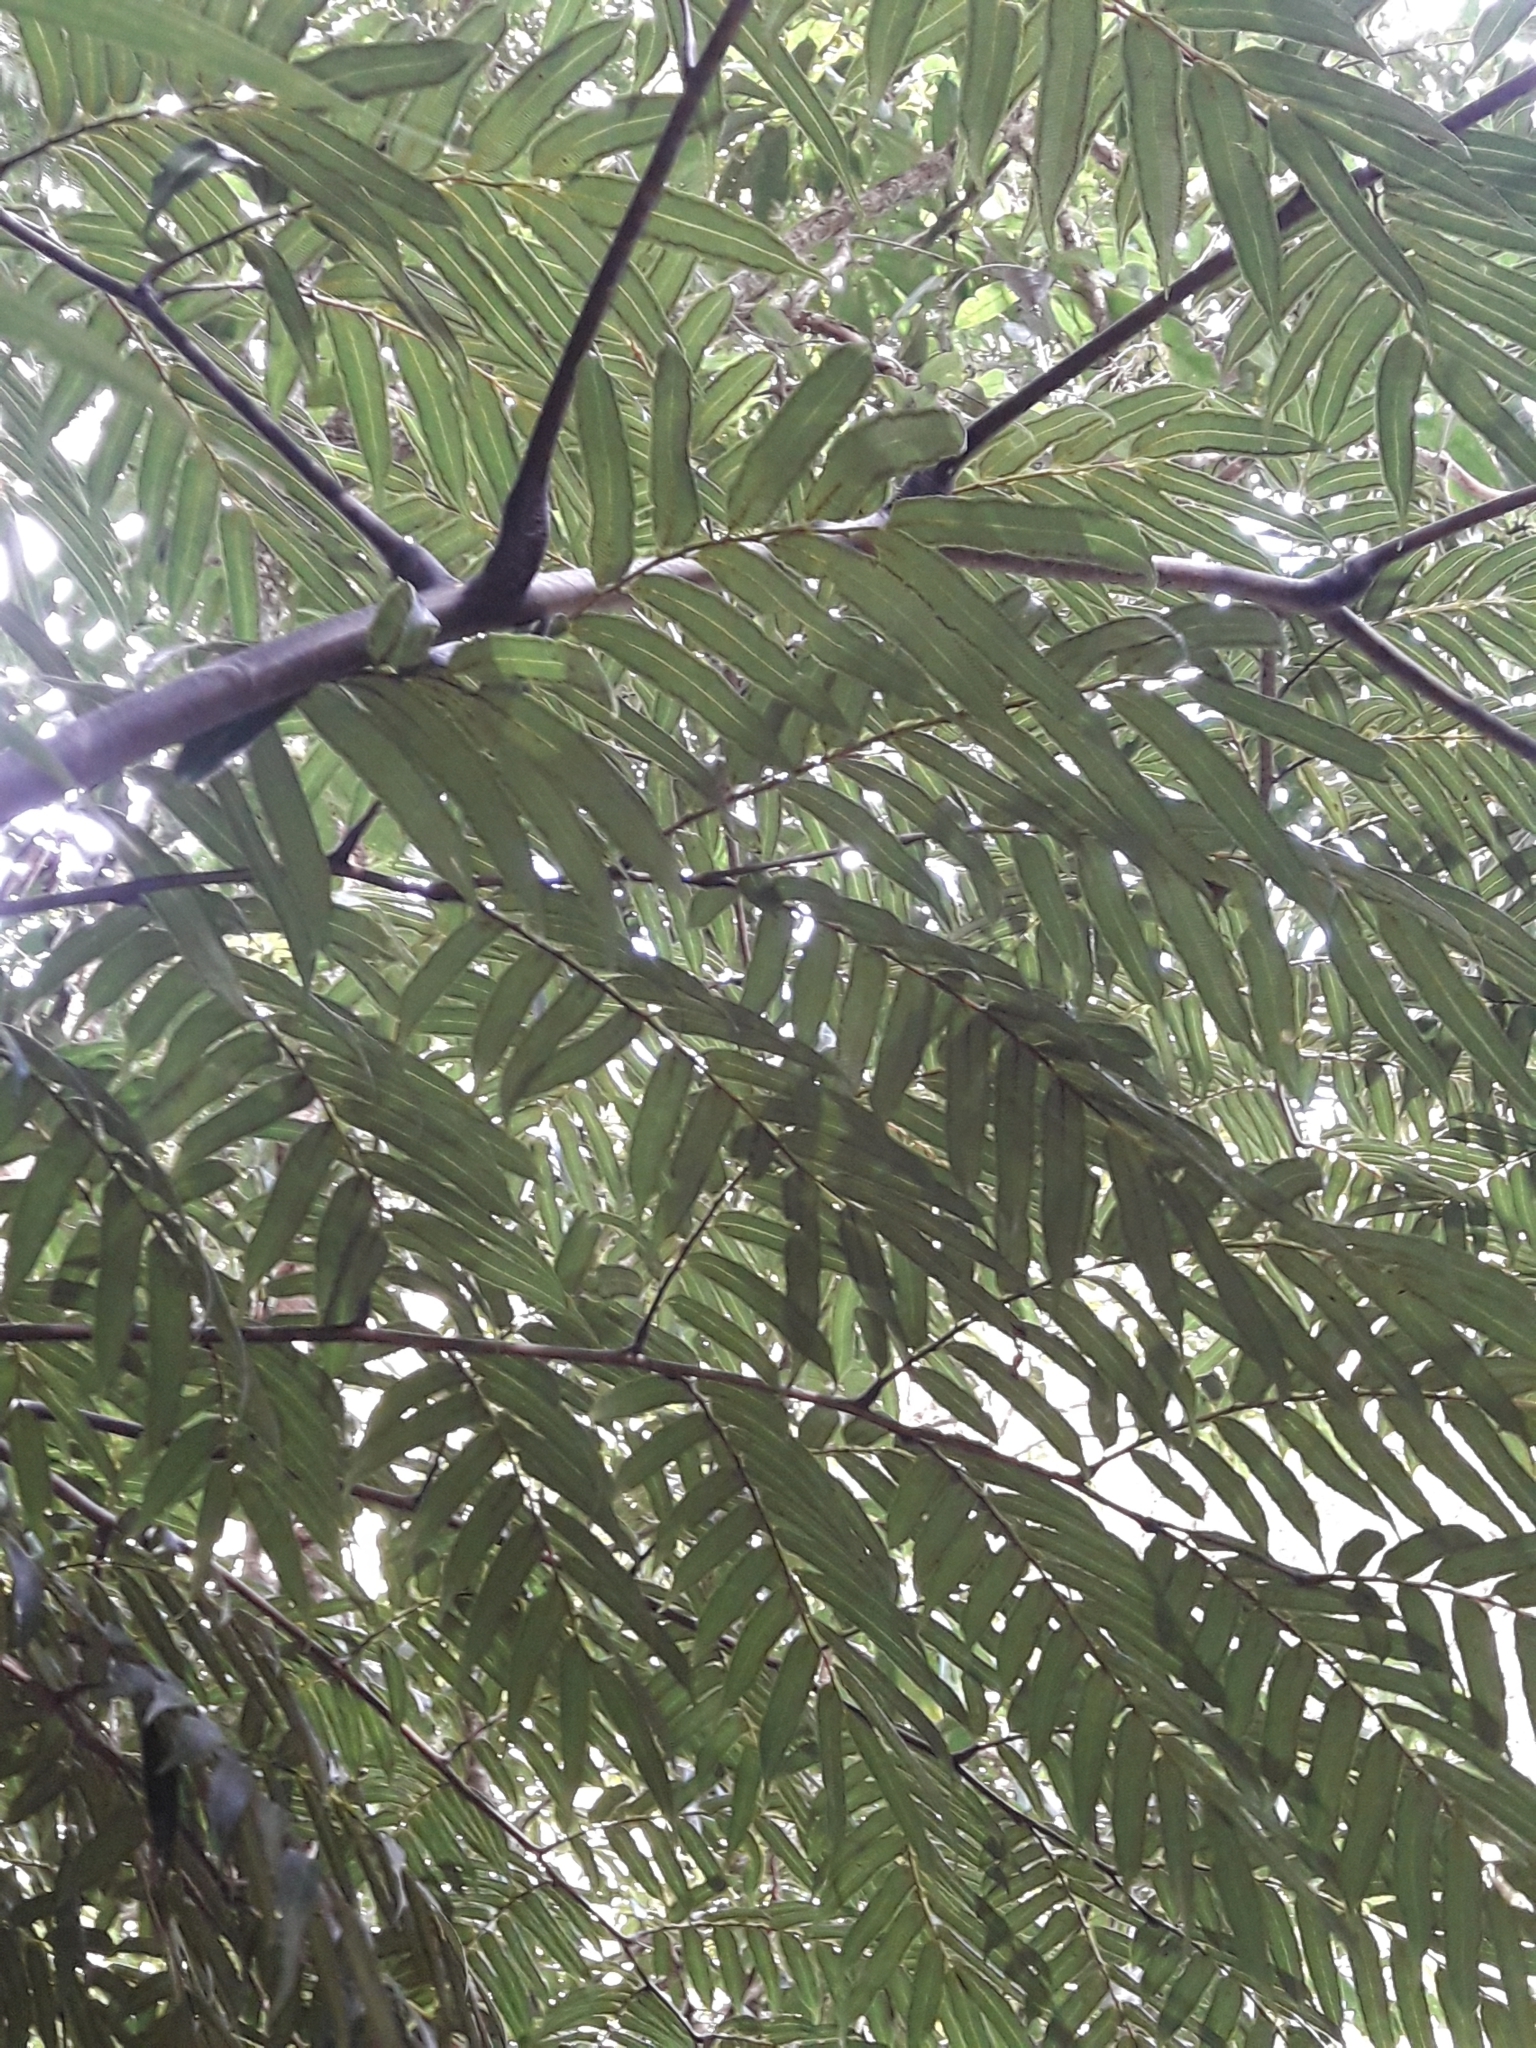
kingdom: Plantae
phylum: Tracheophyta
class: Polypodiopsida
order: Marattiales
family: Marattiaceae
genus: Ptisana
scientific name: Ptisana attenuata
